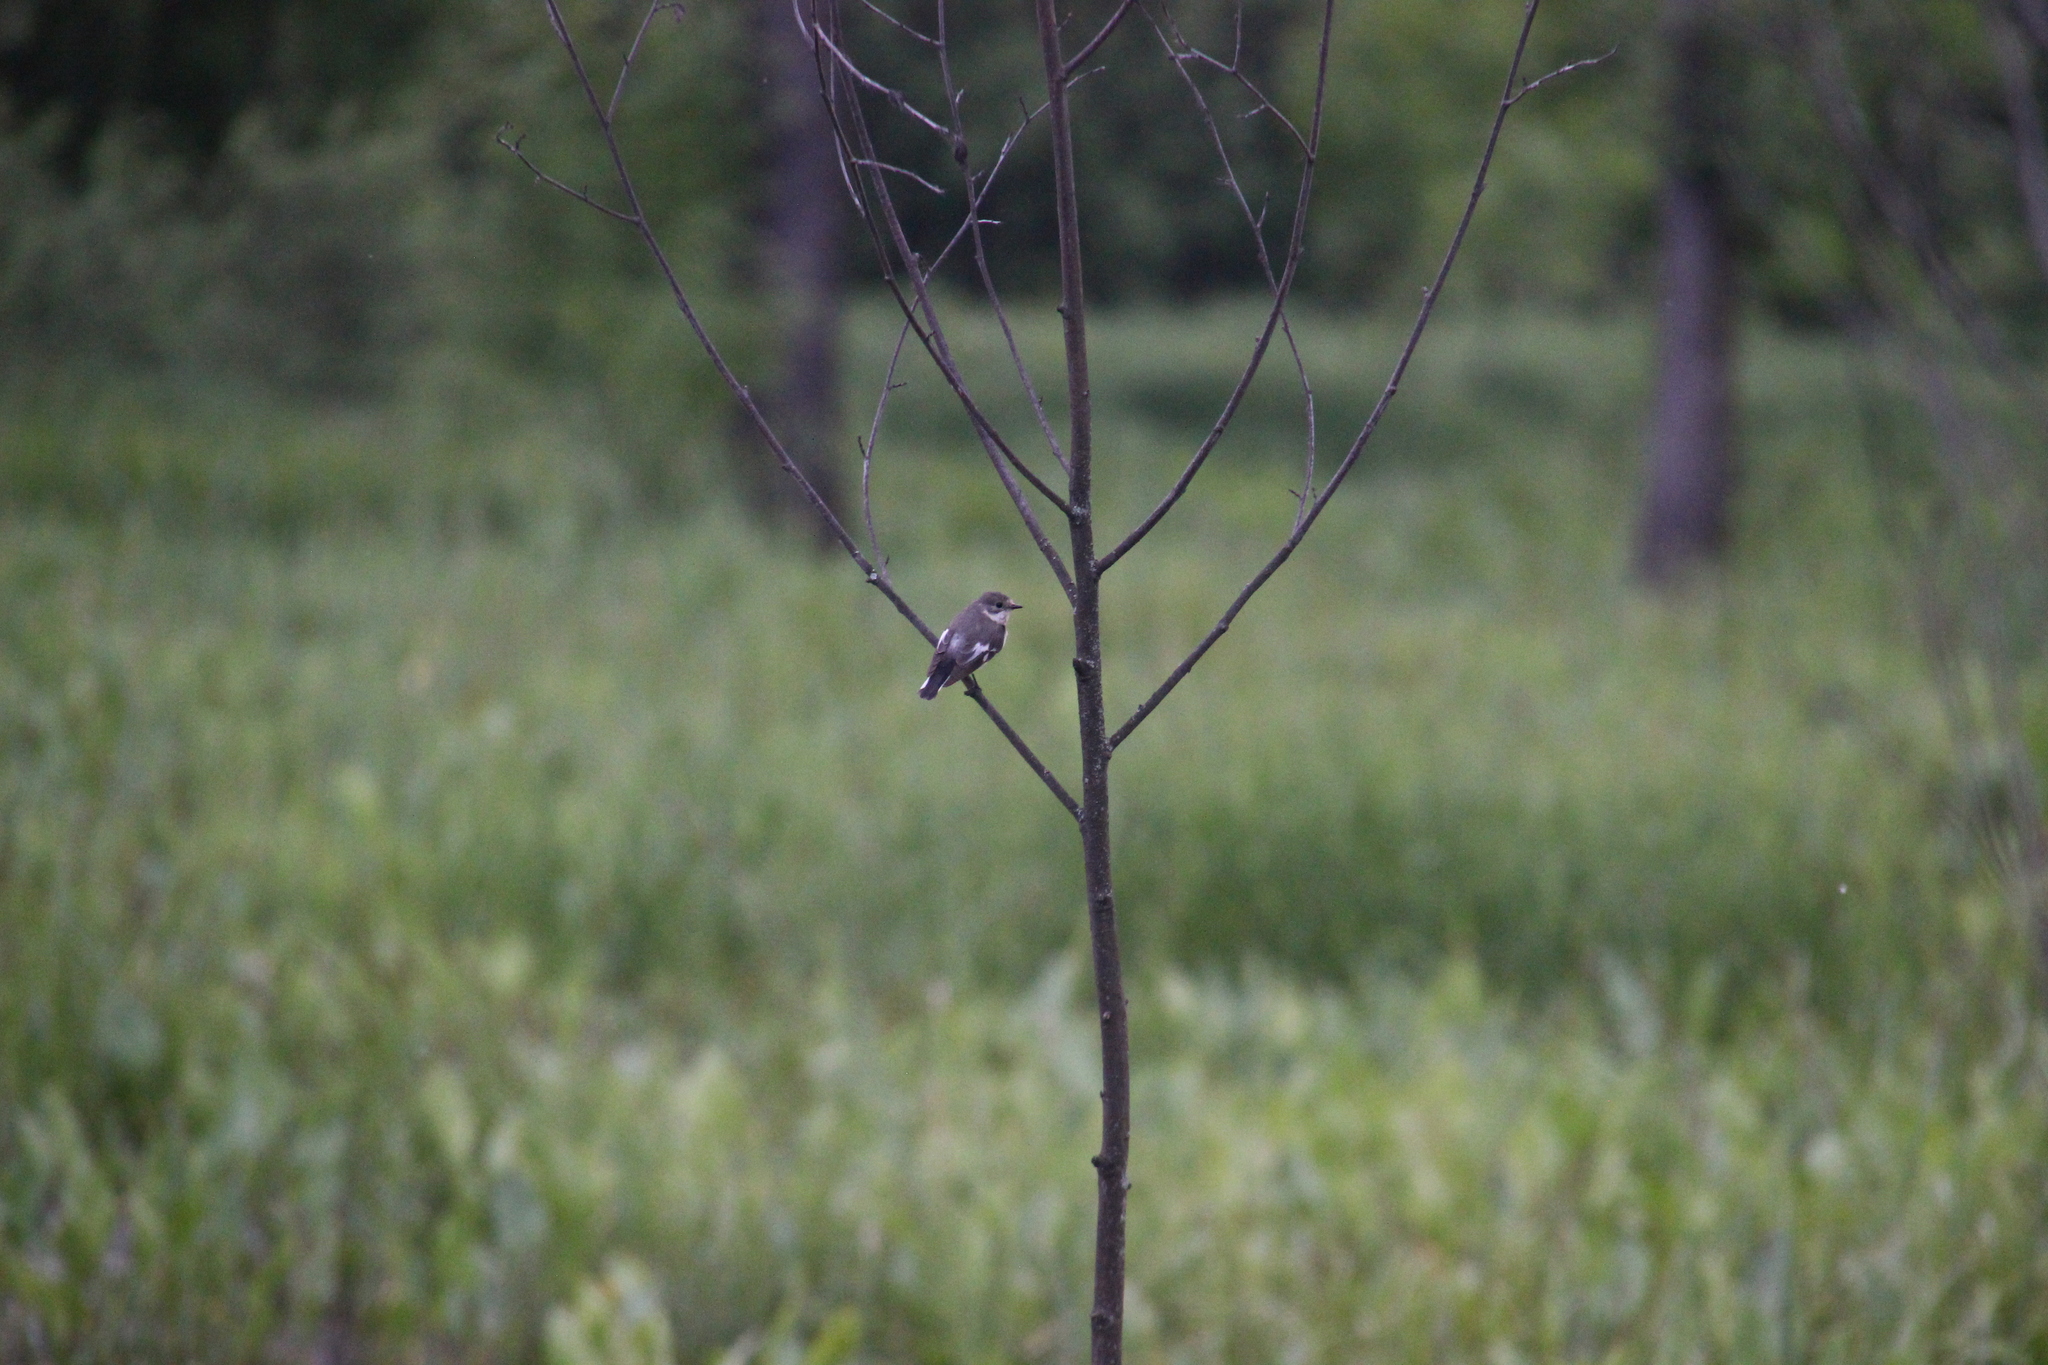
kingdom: Animalia
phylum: Chordata
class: Aves
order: Passeriformes
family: Muscicapidae
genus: Ficedula
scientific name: Ficedula hypoleuca
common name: European pied flycatcher
